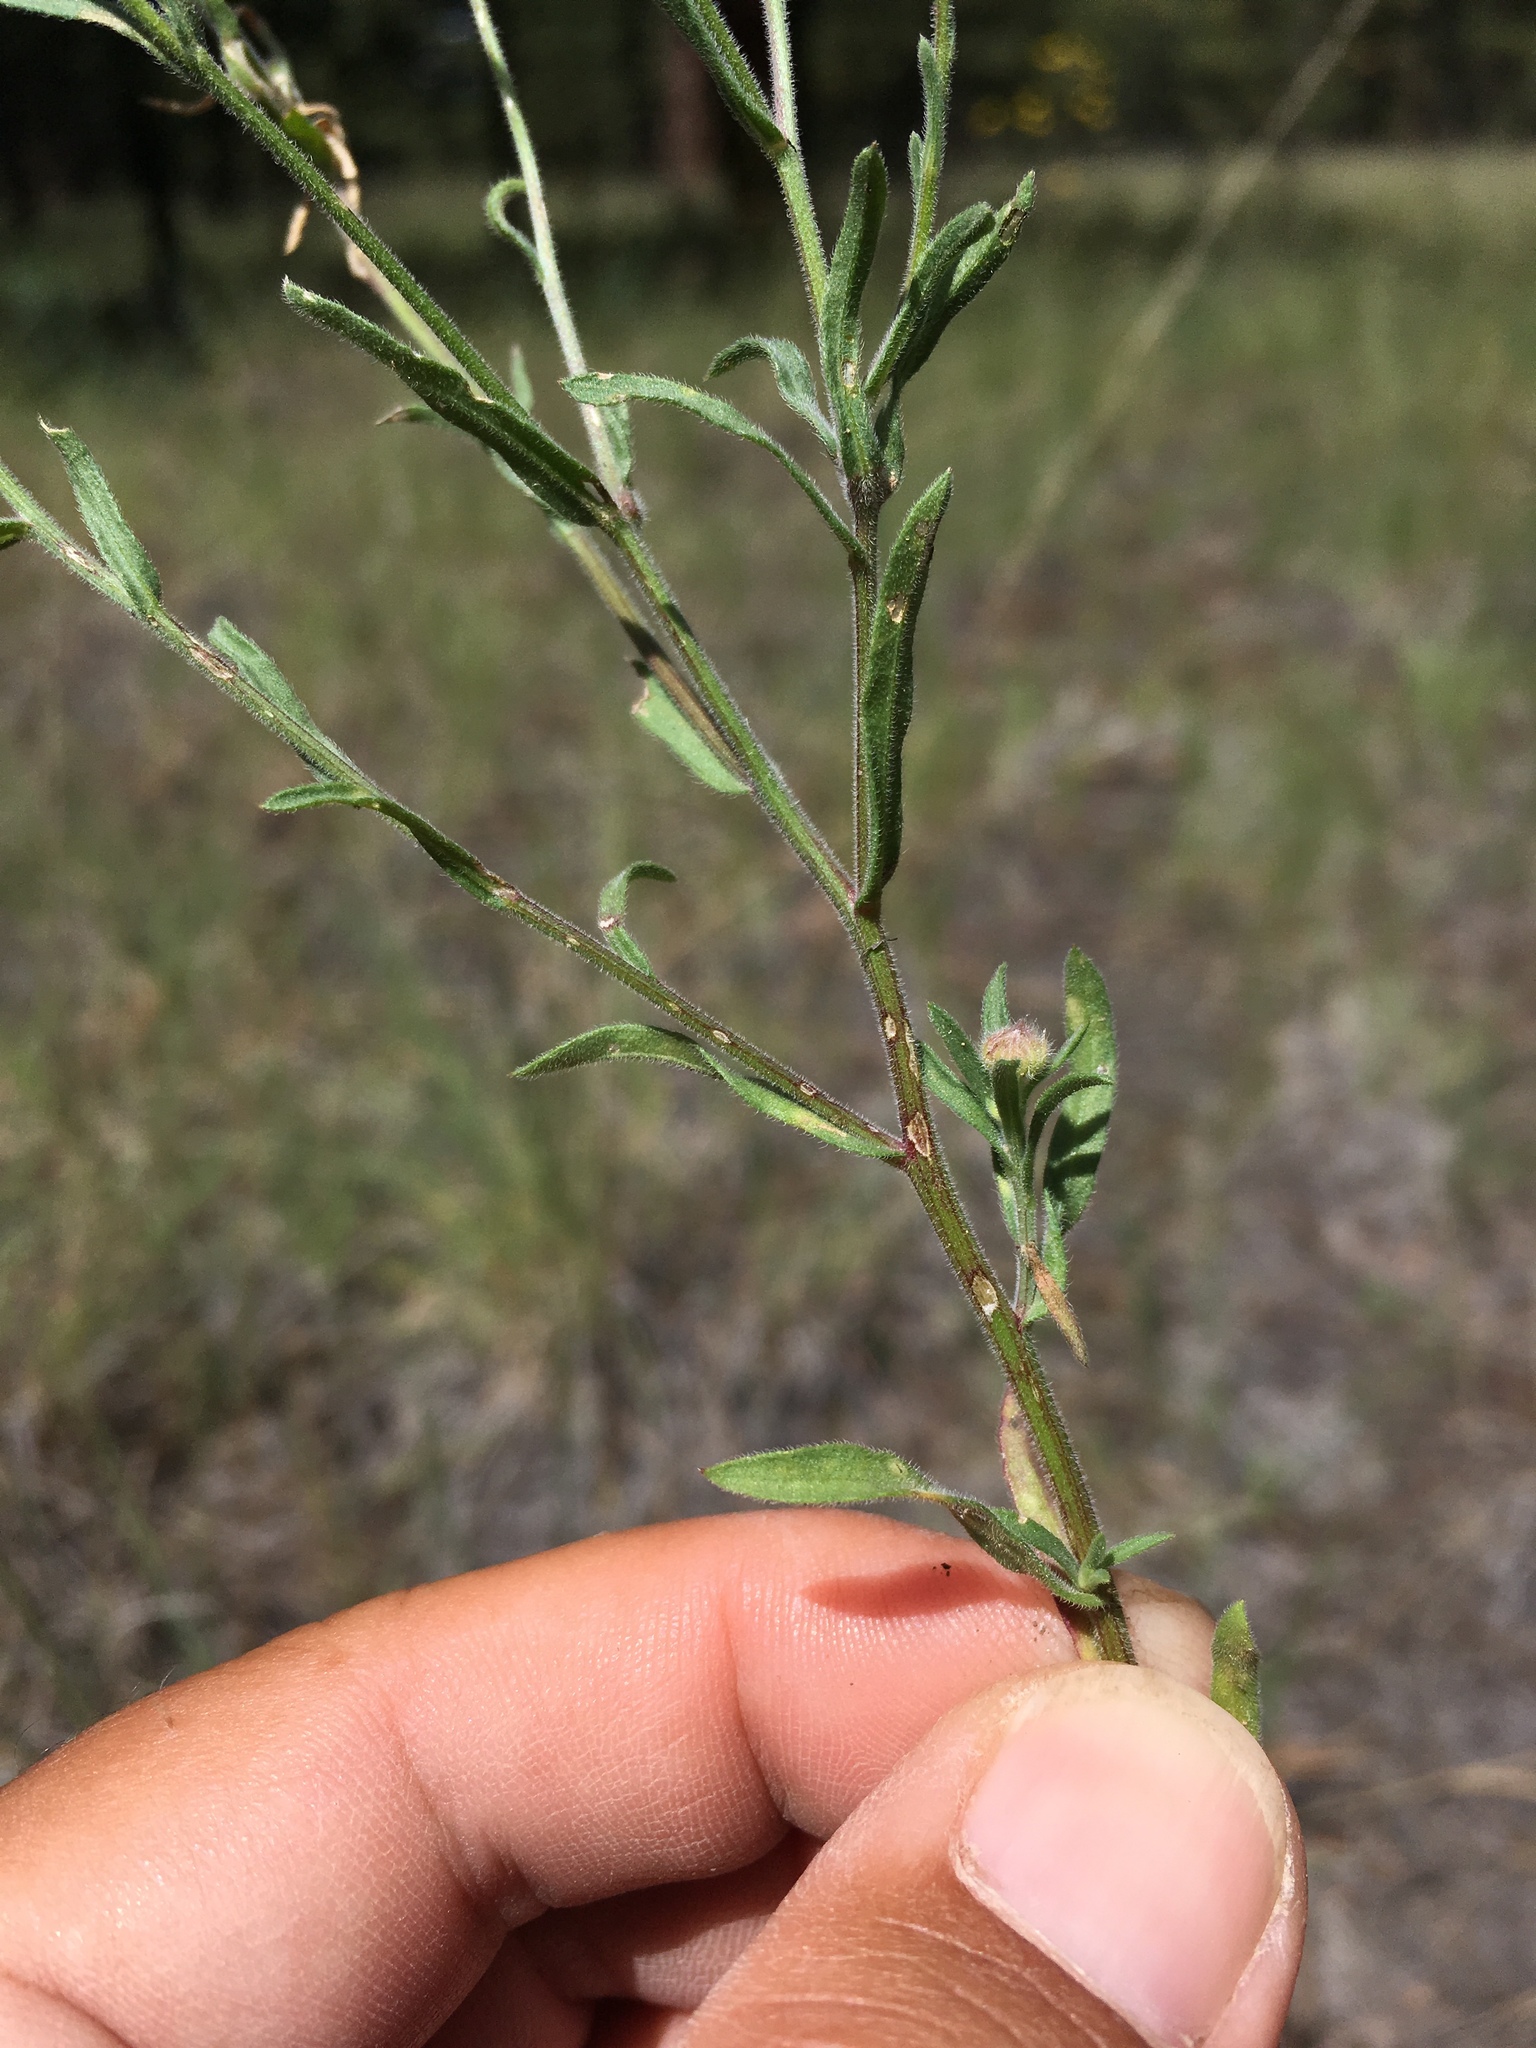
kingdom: Plantae
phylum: Tracheophyta
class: Magnoliopsida
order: Asterales
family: Asteraceae
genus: Erigeron
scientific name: Erigeron divergens
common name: Diffuse fleabane
